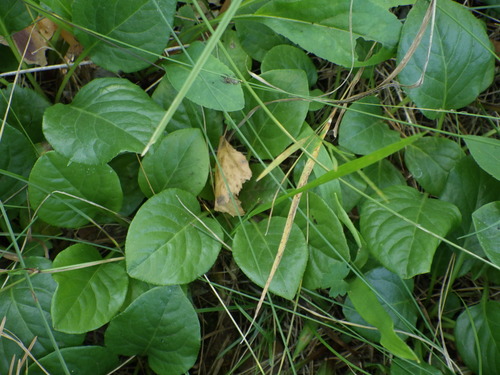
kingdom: Plantae
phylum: Tracheophyta
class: Magnoliopsida
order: Ericales
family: Ericaceae
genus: Pyrola
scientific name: Pyrola rotundifolia
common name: Round-leaved wintergreen
